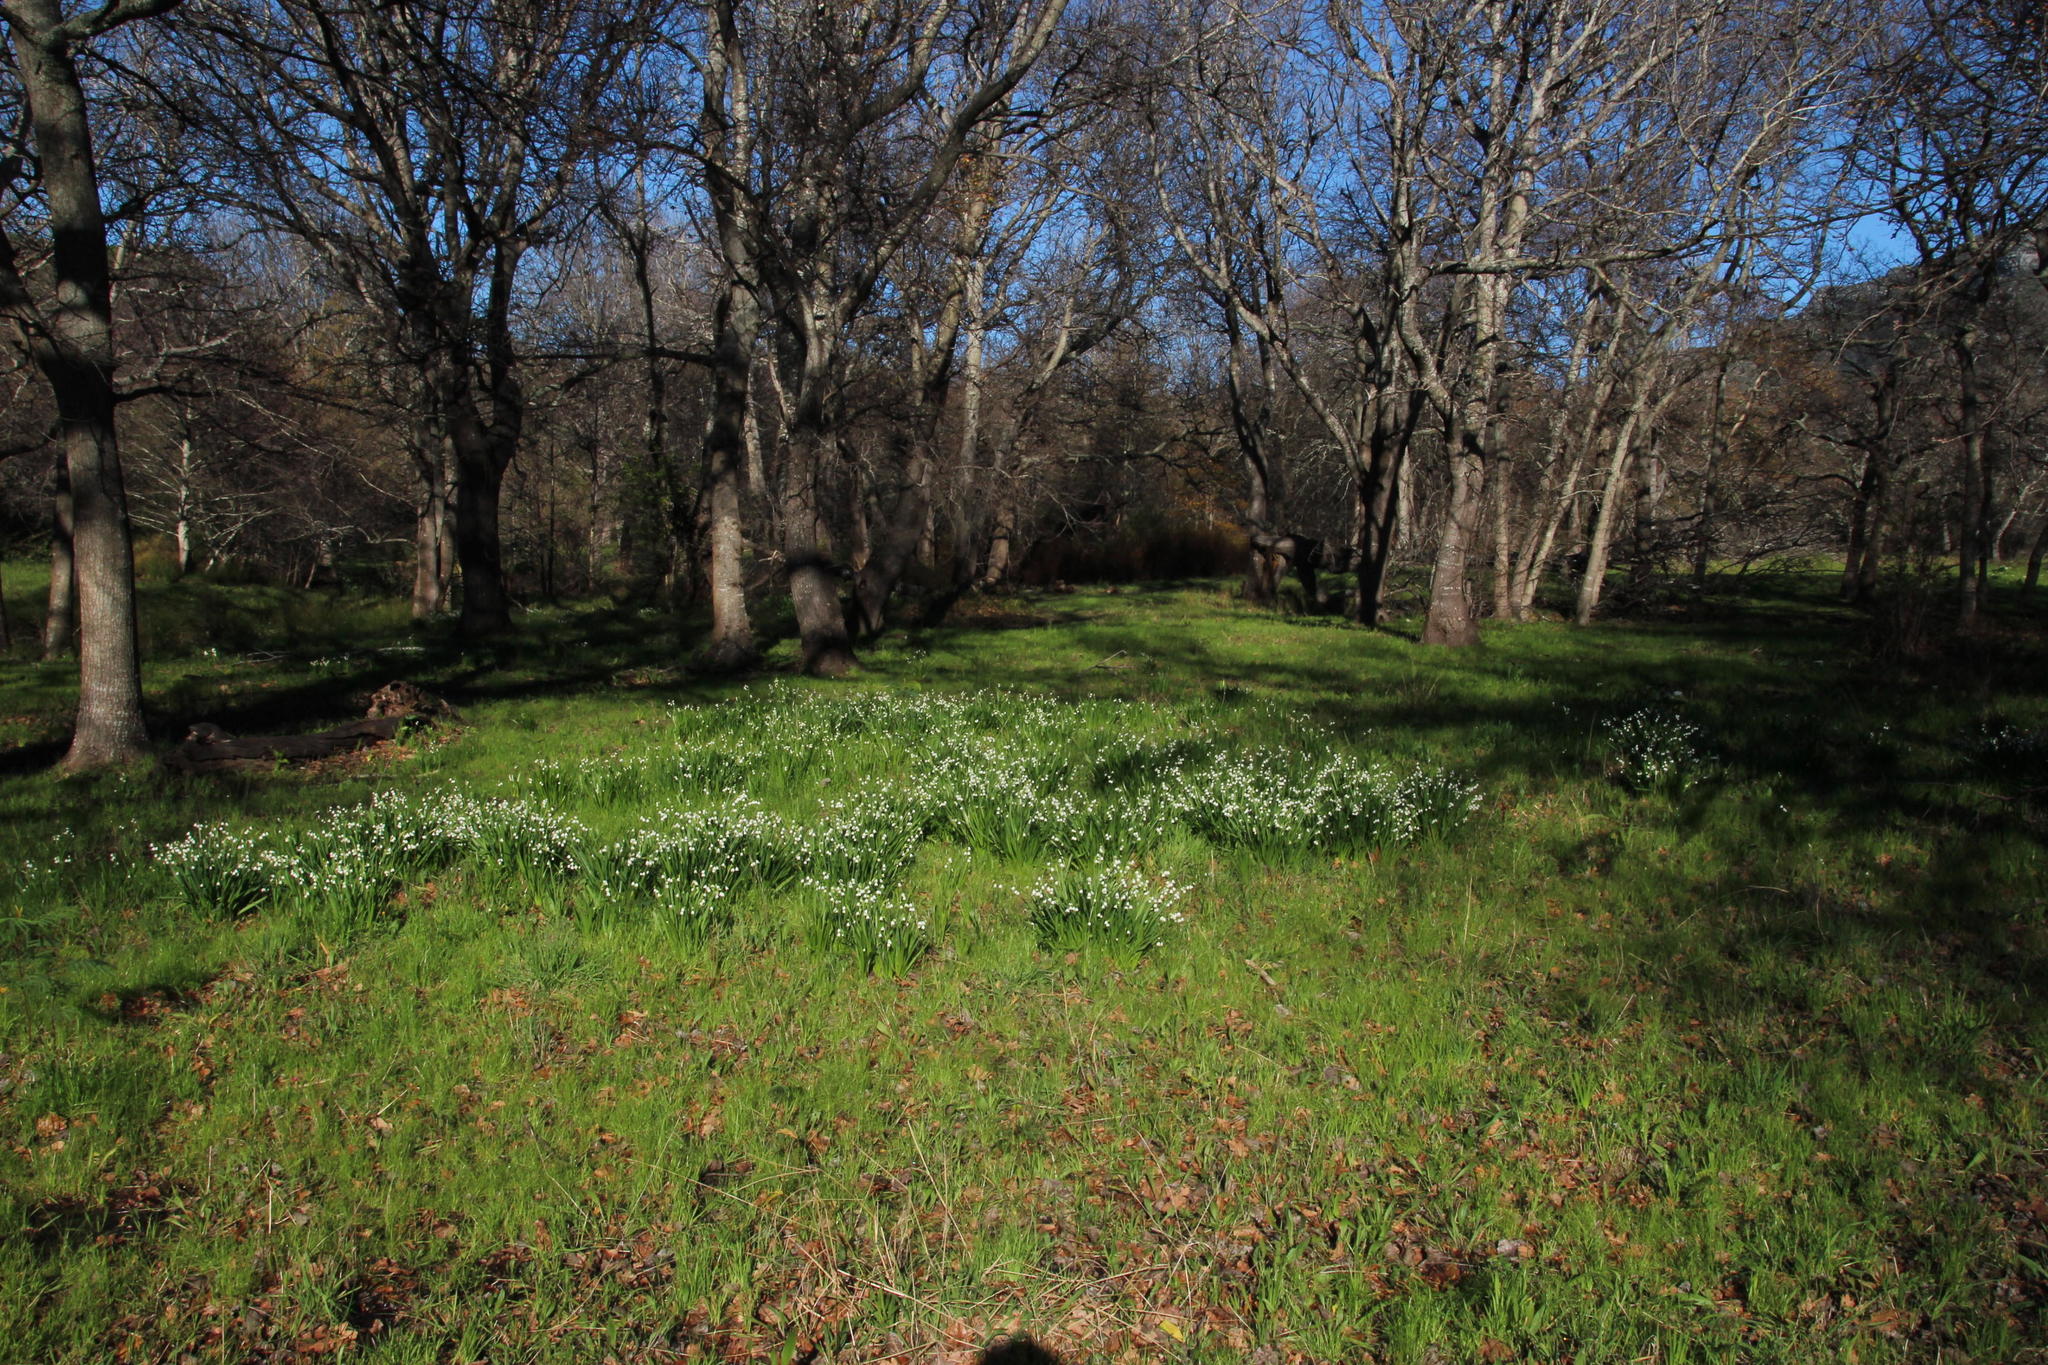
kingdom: Plantae
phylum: Tracheophyta
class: Liliopsida
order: Asparagales
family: Amaryllidaceae
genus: Leucojum
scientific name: Leucojum aestivum
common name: Summer snowflake
